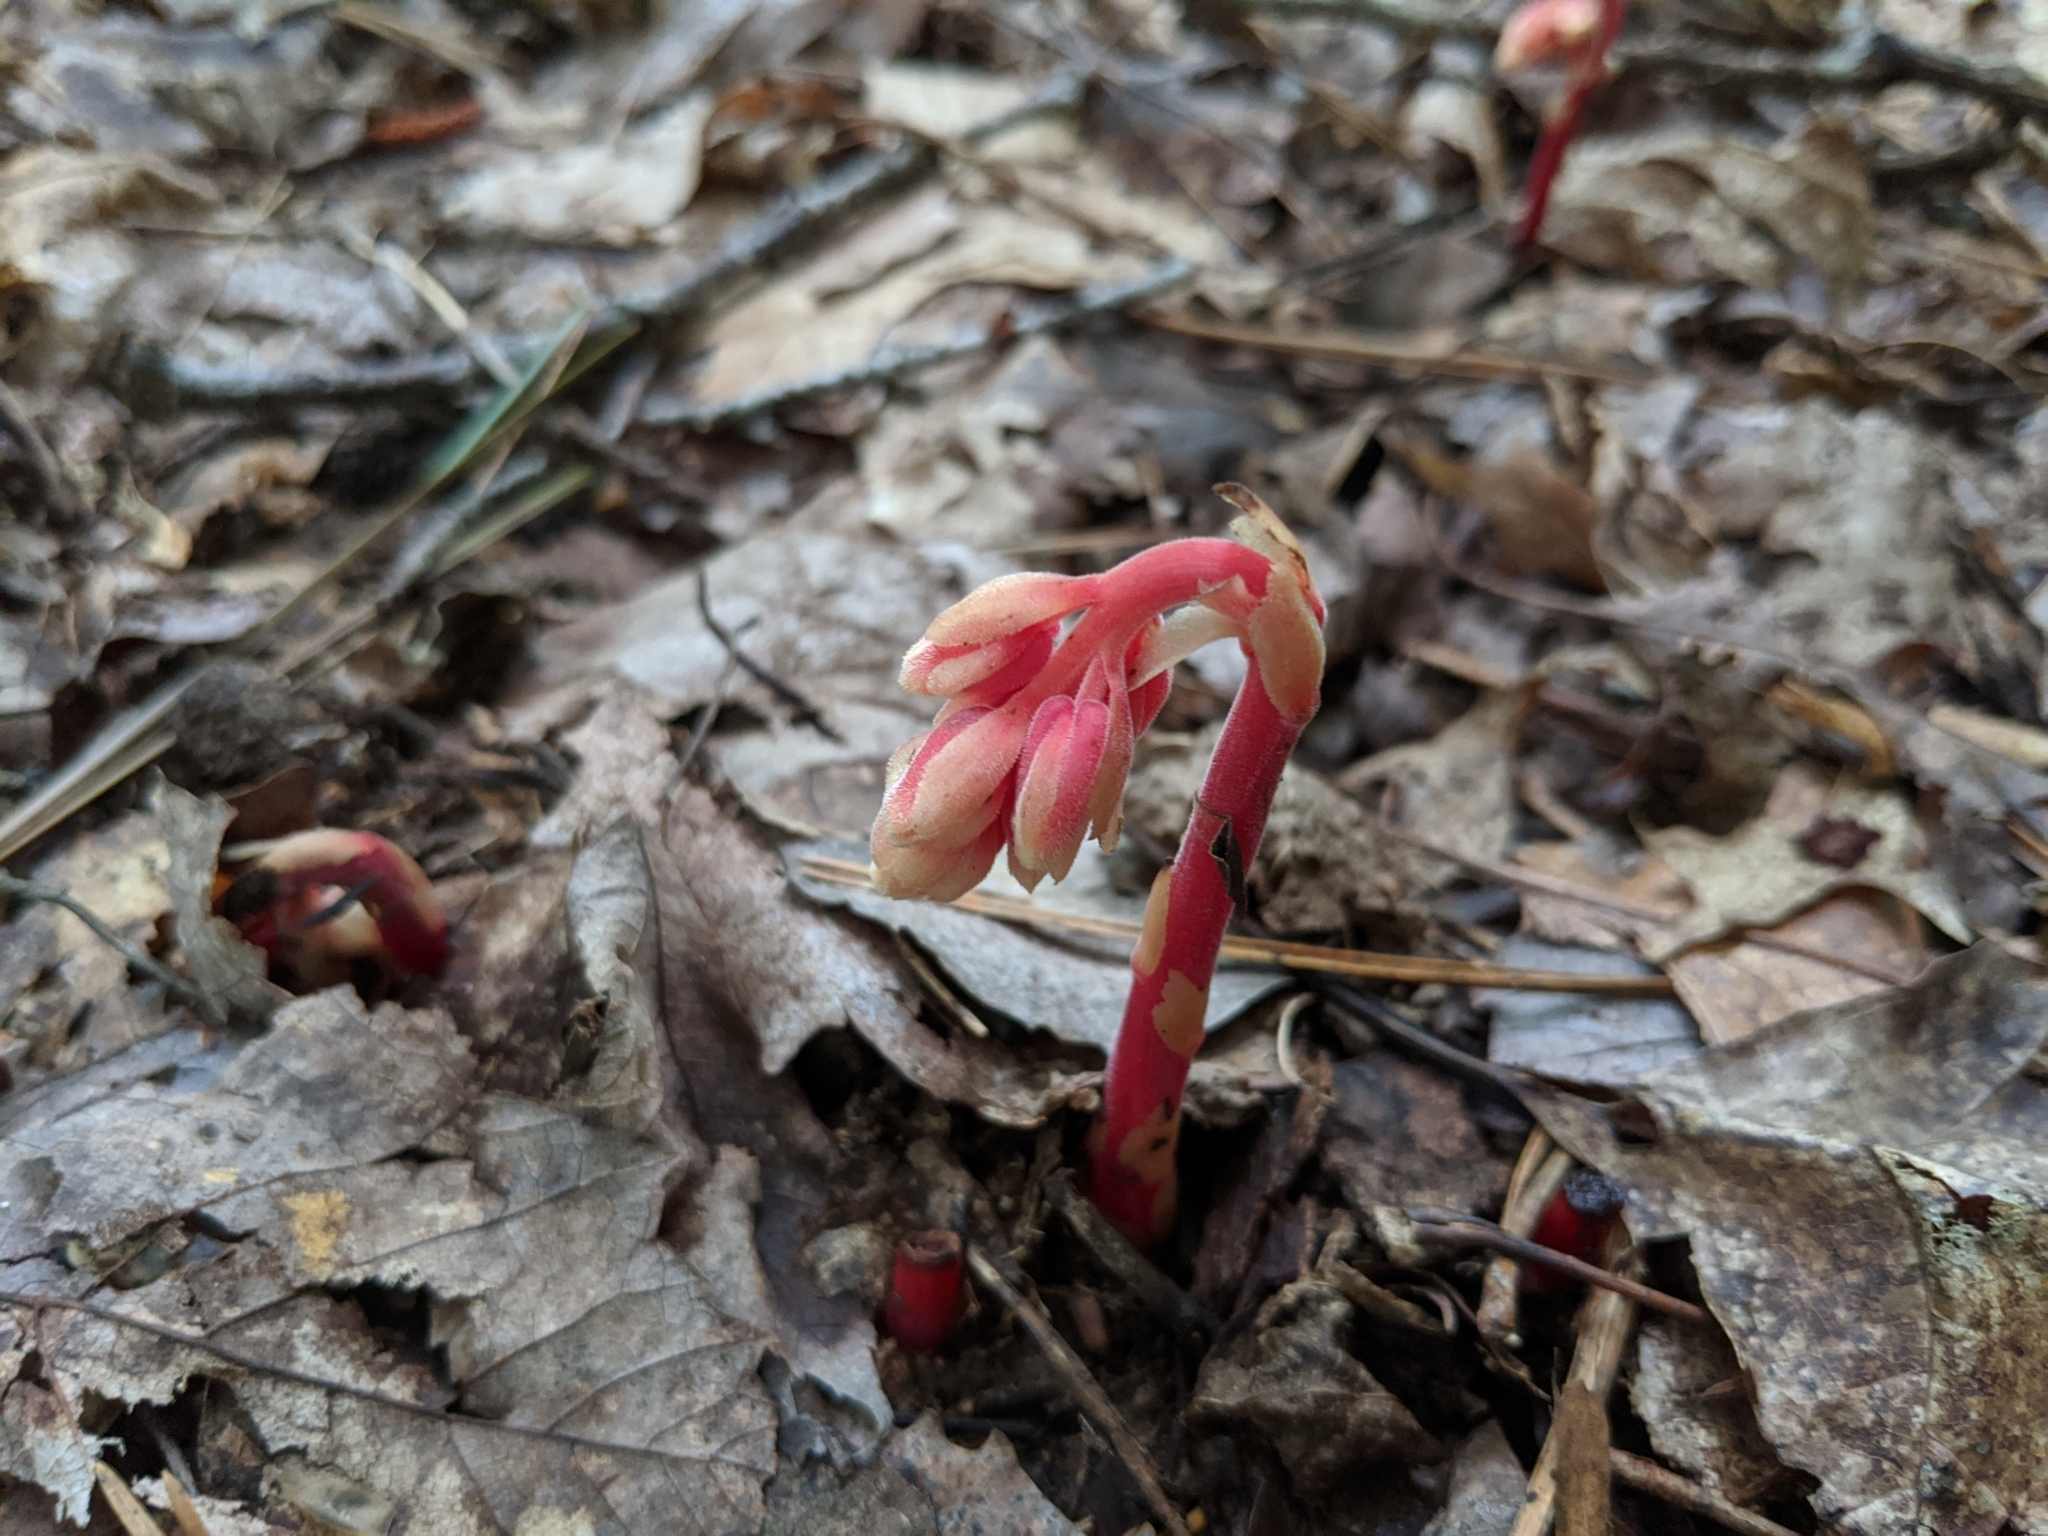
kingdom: Plantae
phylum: Tracheophyta
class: Magnoliopsida
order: Ericales
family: Ericaceae
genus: Hypopitys
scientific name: Hypopitys monotropa
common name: Yellow bird's-nest
